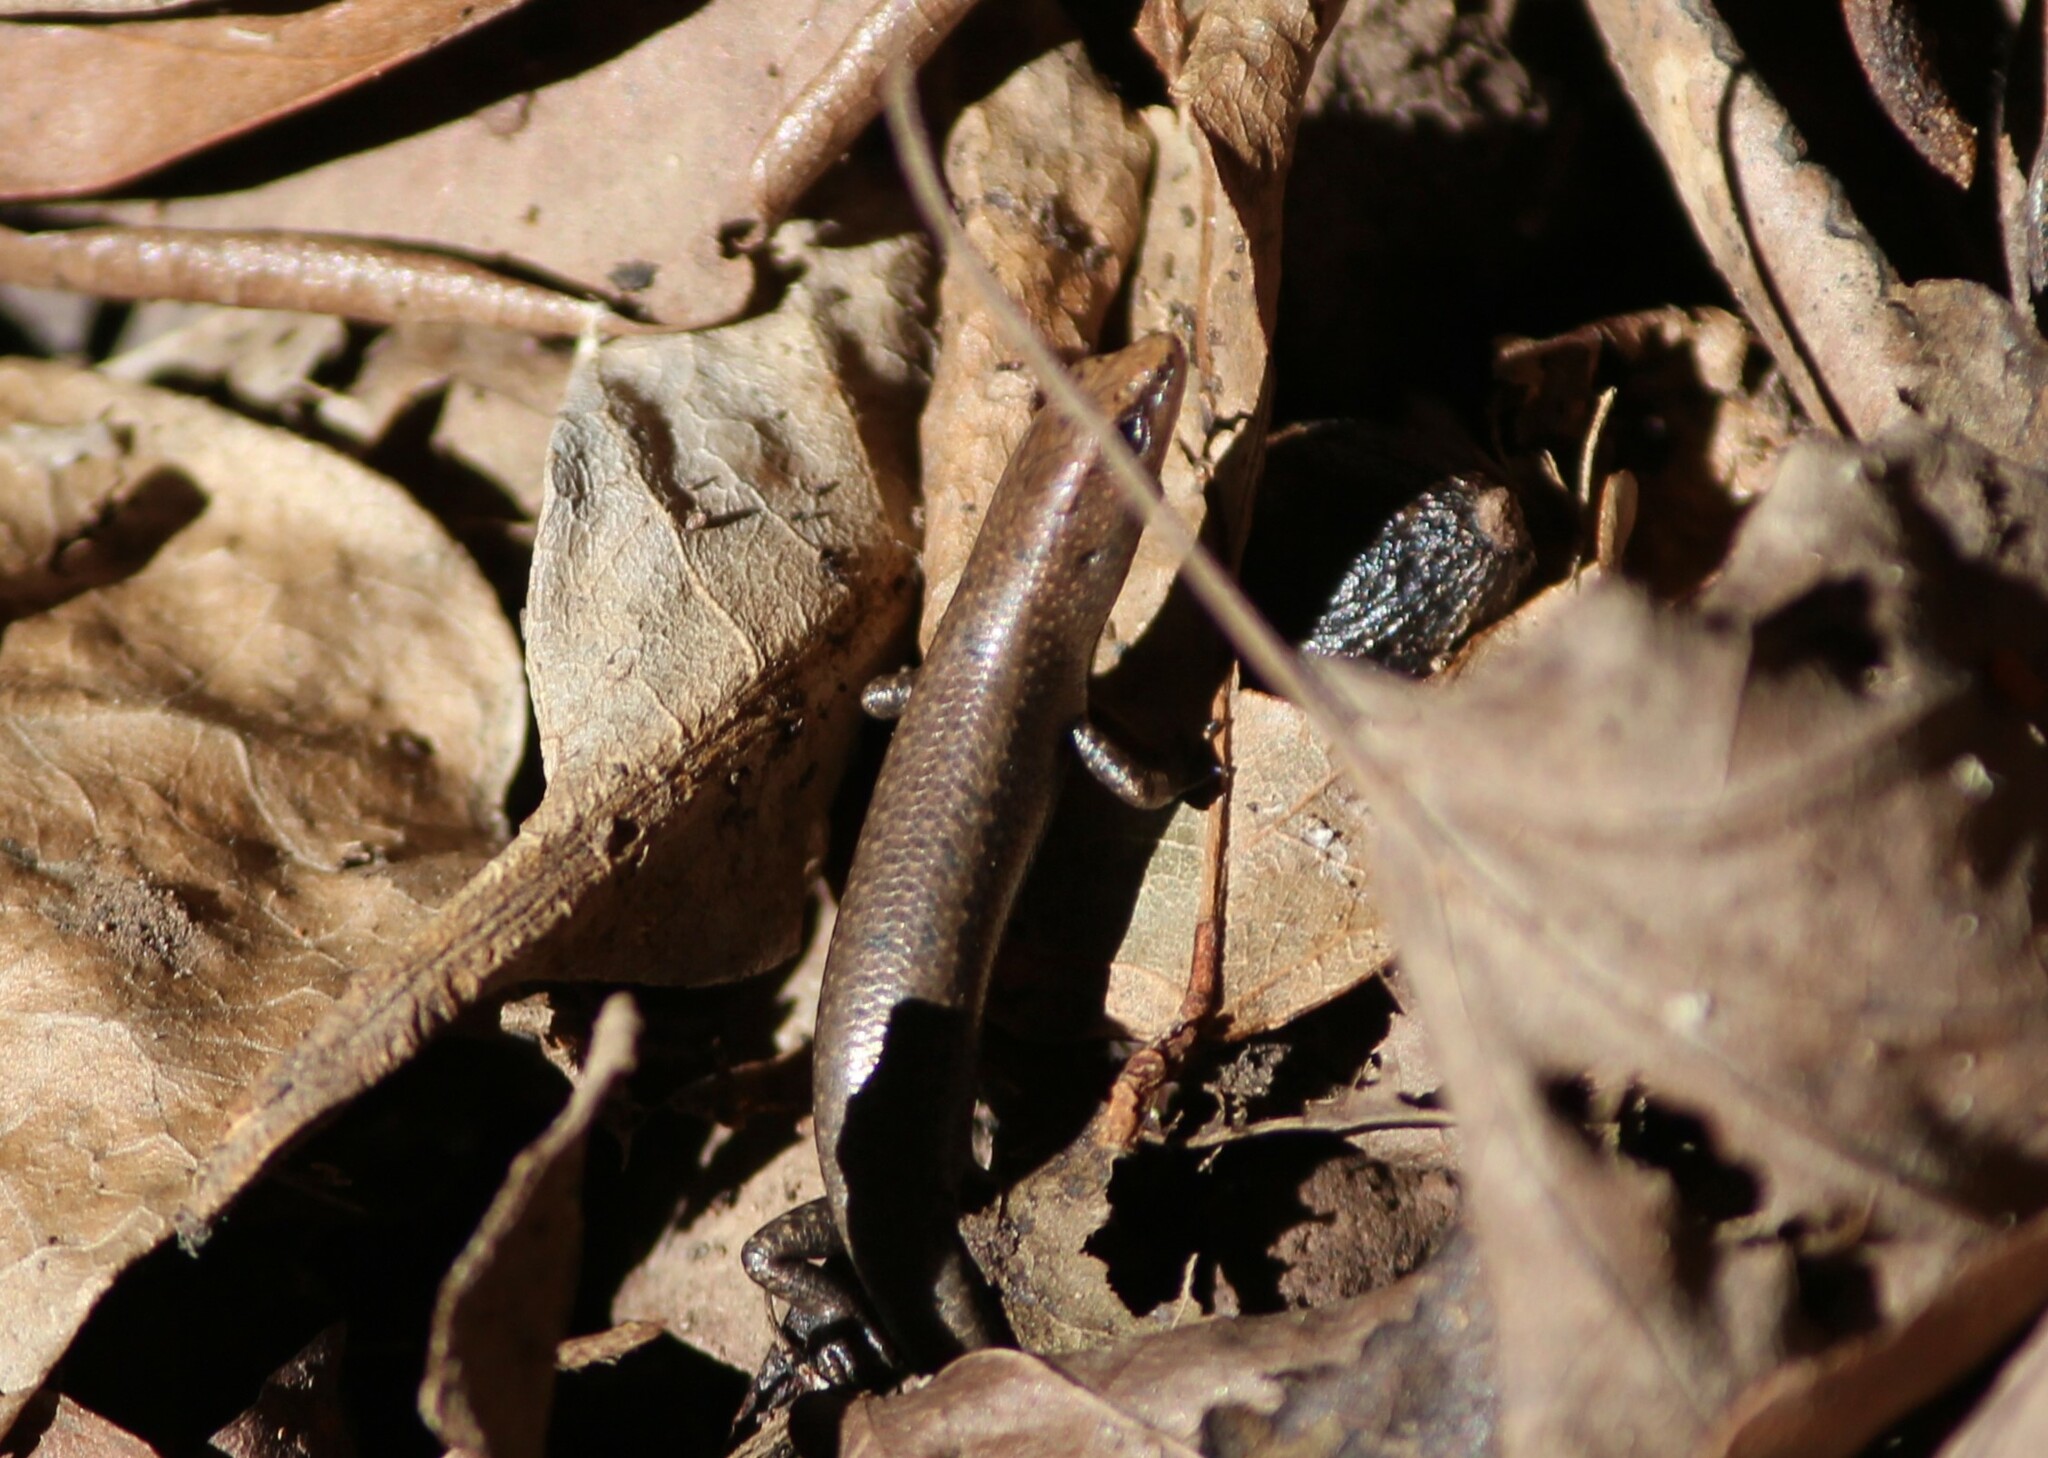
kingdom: Animalia
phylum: Chordata
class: Squamata
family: Scincidae
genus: Lampropholis
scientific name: Lampropholis adonis
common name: Diamond shielded sunskink
